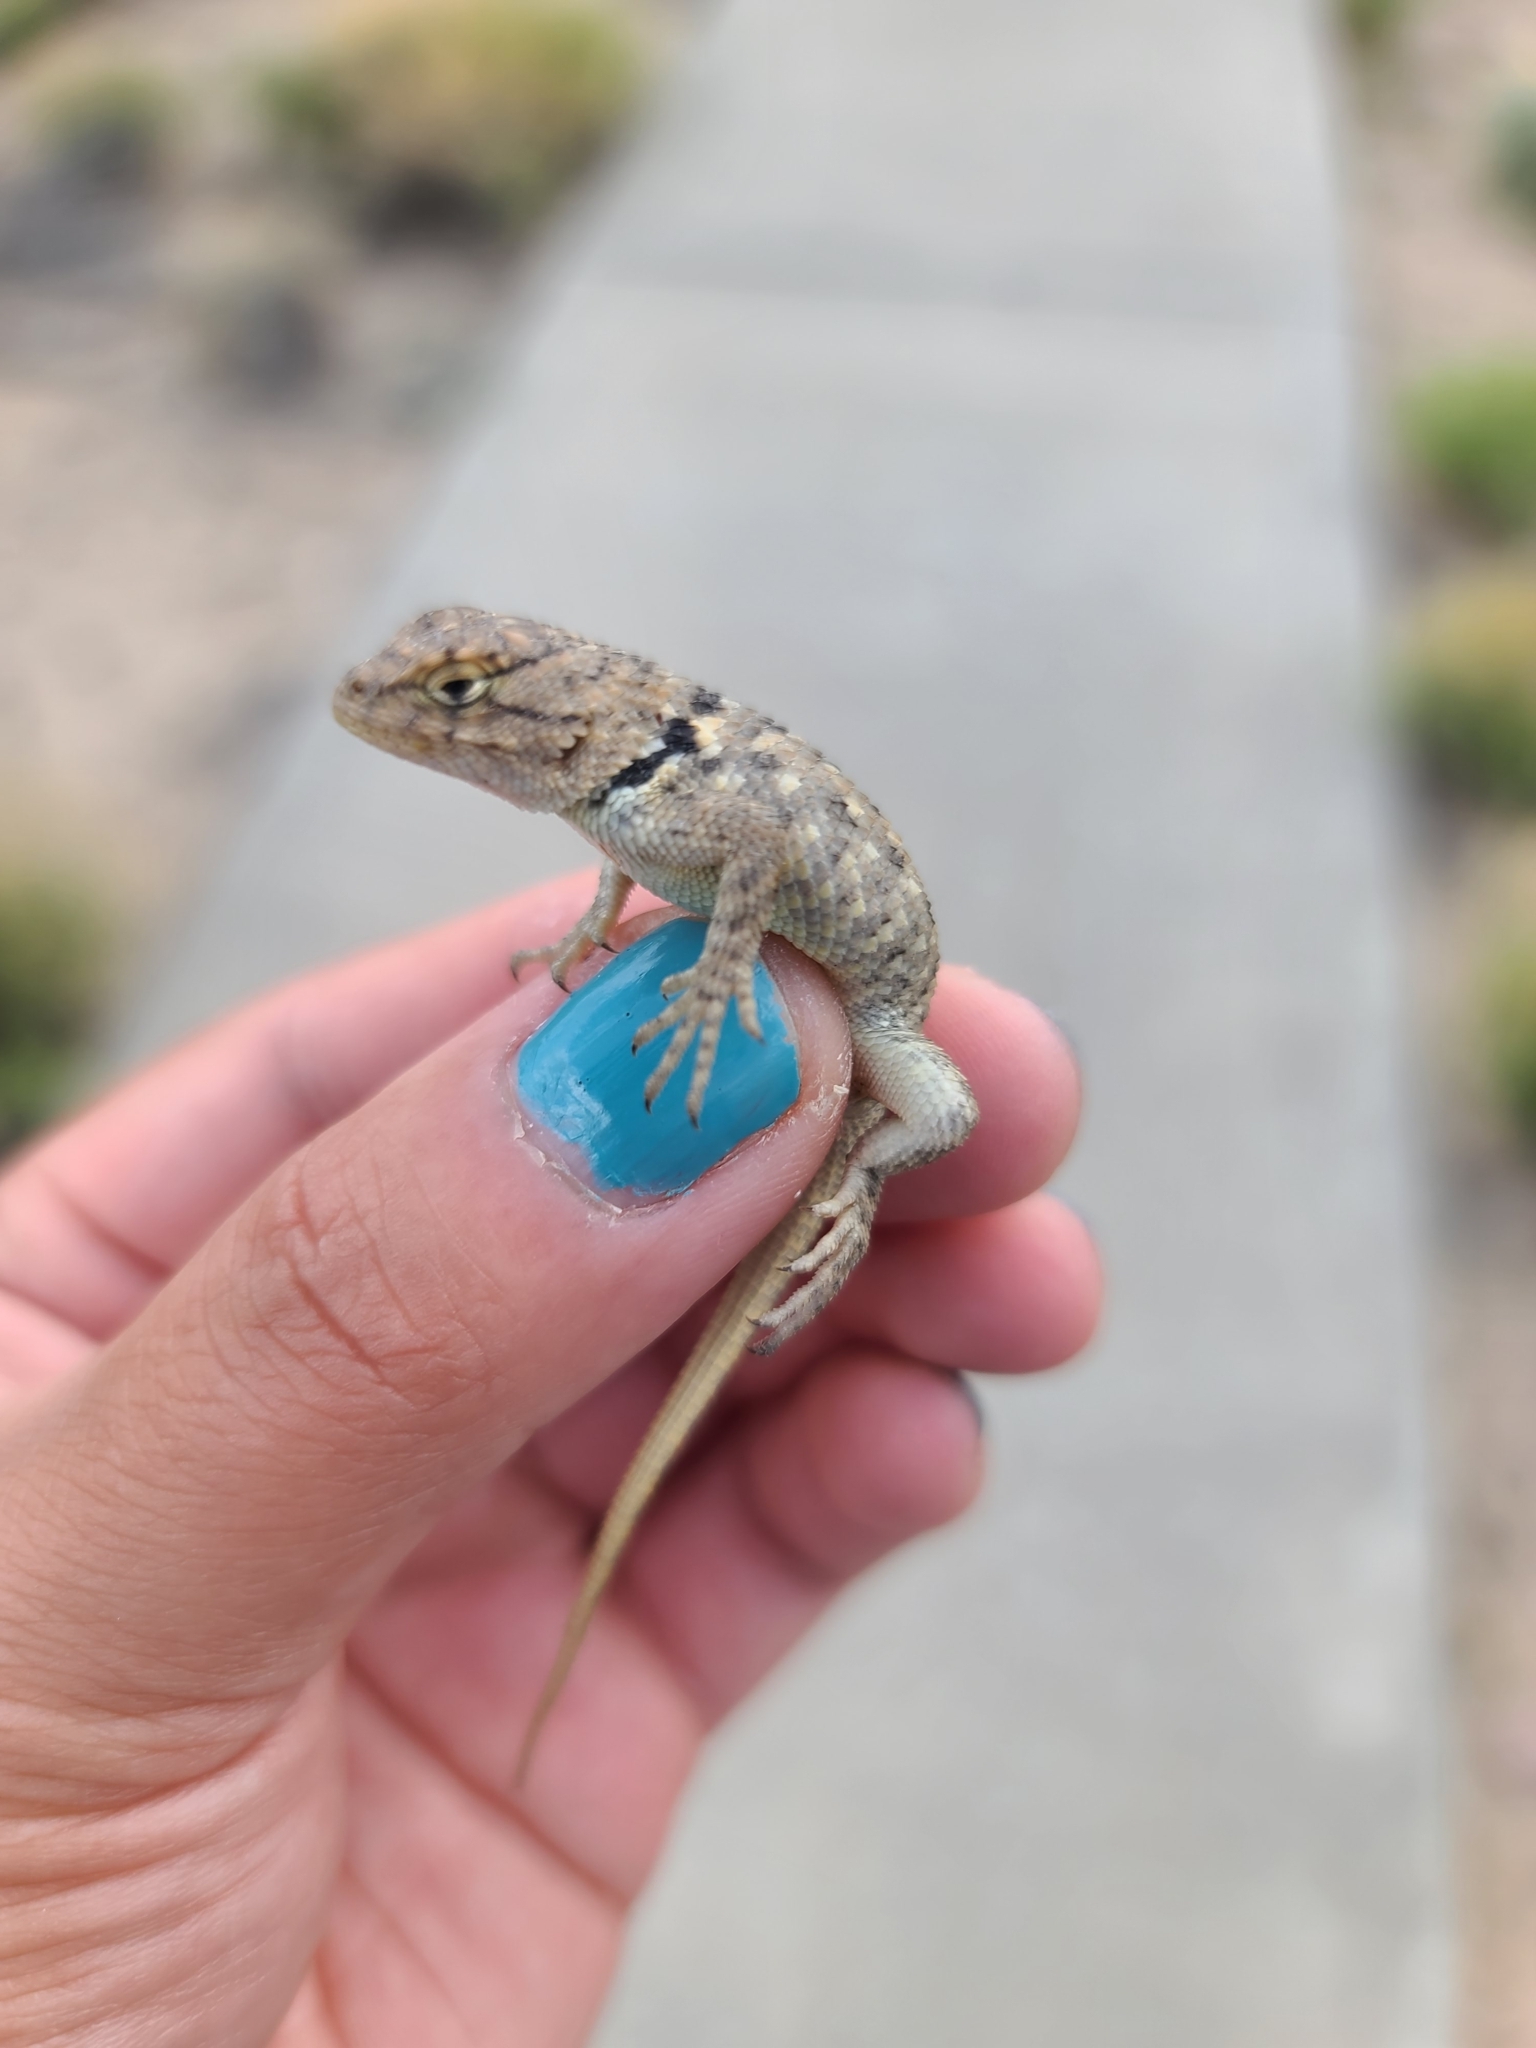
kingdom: Animalia
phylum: Chordata
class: Squamata
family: Phrynosomatidae
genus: Sceloporus
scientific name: Sceloporus bimaculosus
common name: Twin-spotted spiny lizard
